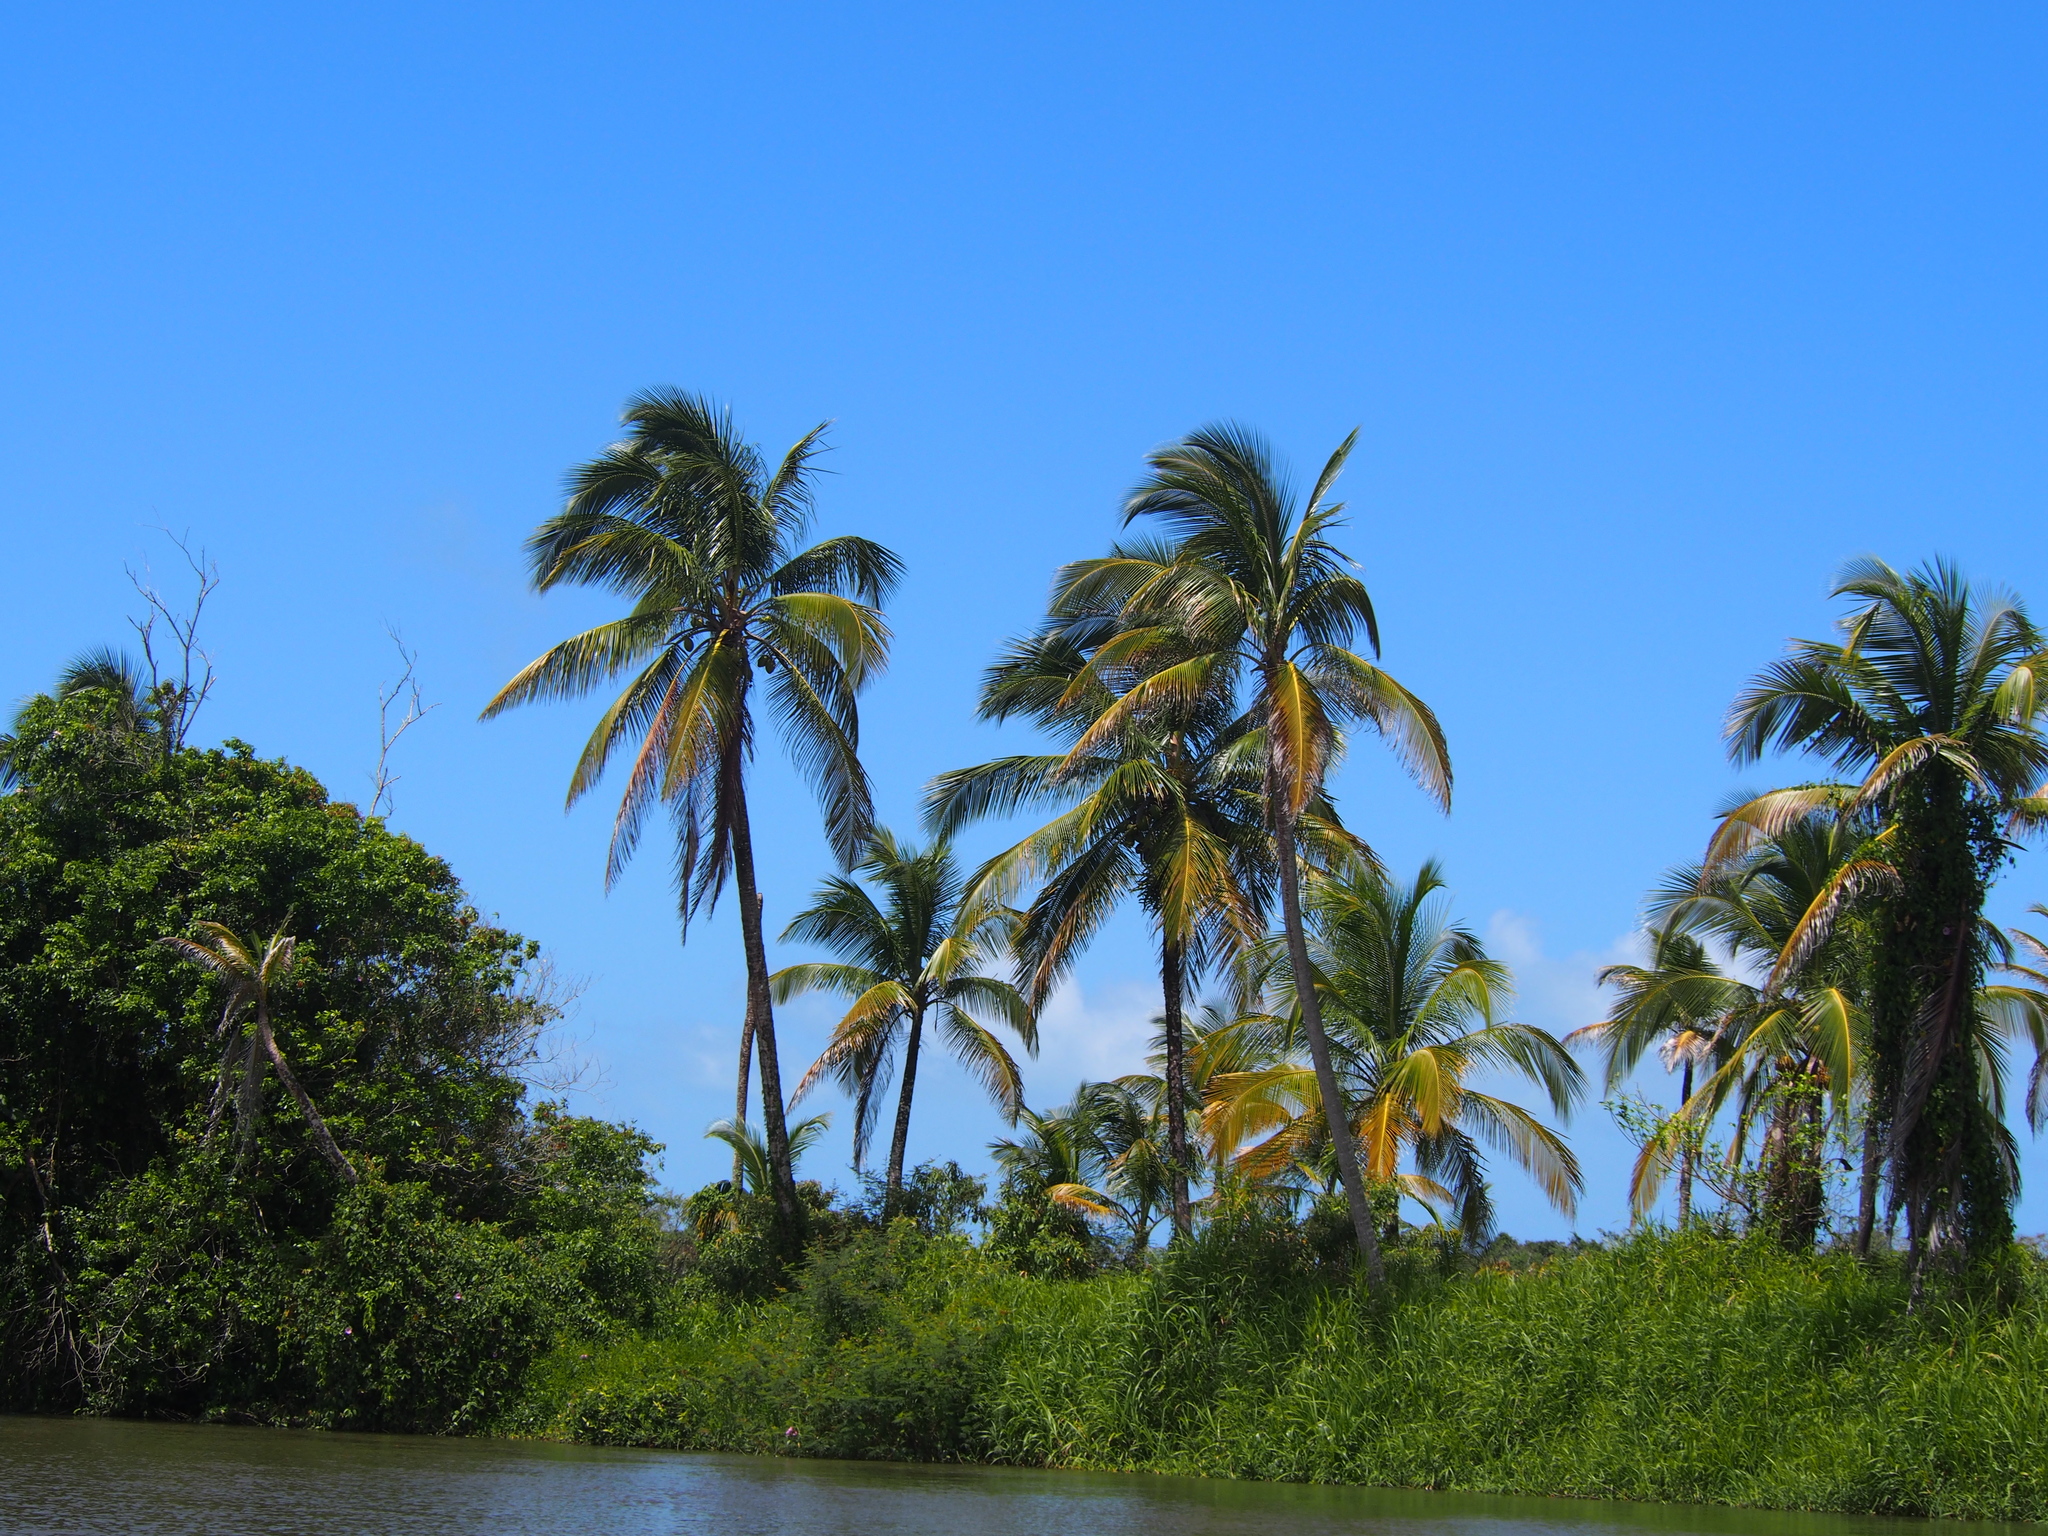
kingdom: Plantae
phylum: Tracheophyta
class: Liliopsida
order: Arecales
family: Arecaceae
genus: Cocos
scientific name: Cocos nucifera
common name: Coconut palm
